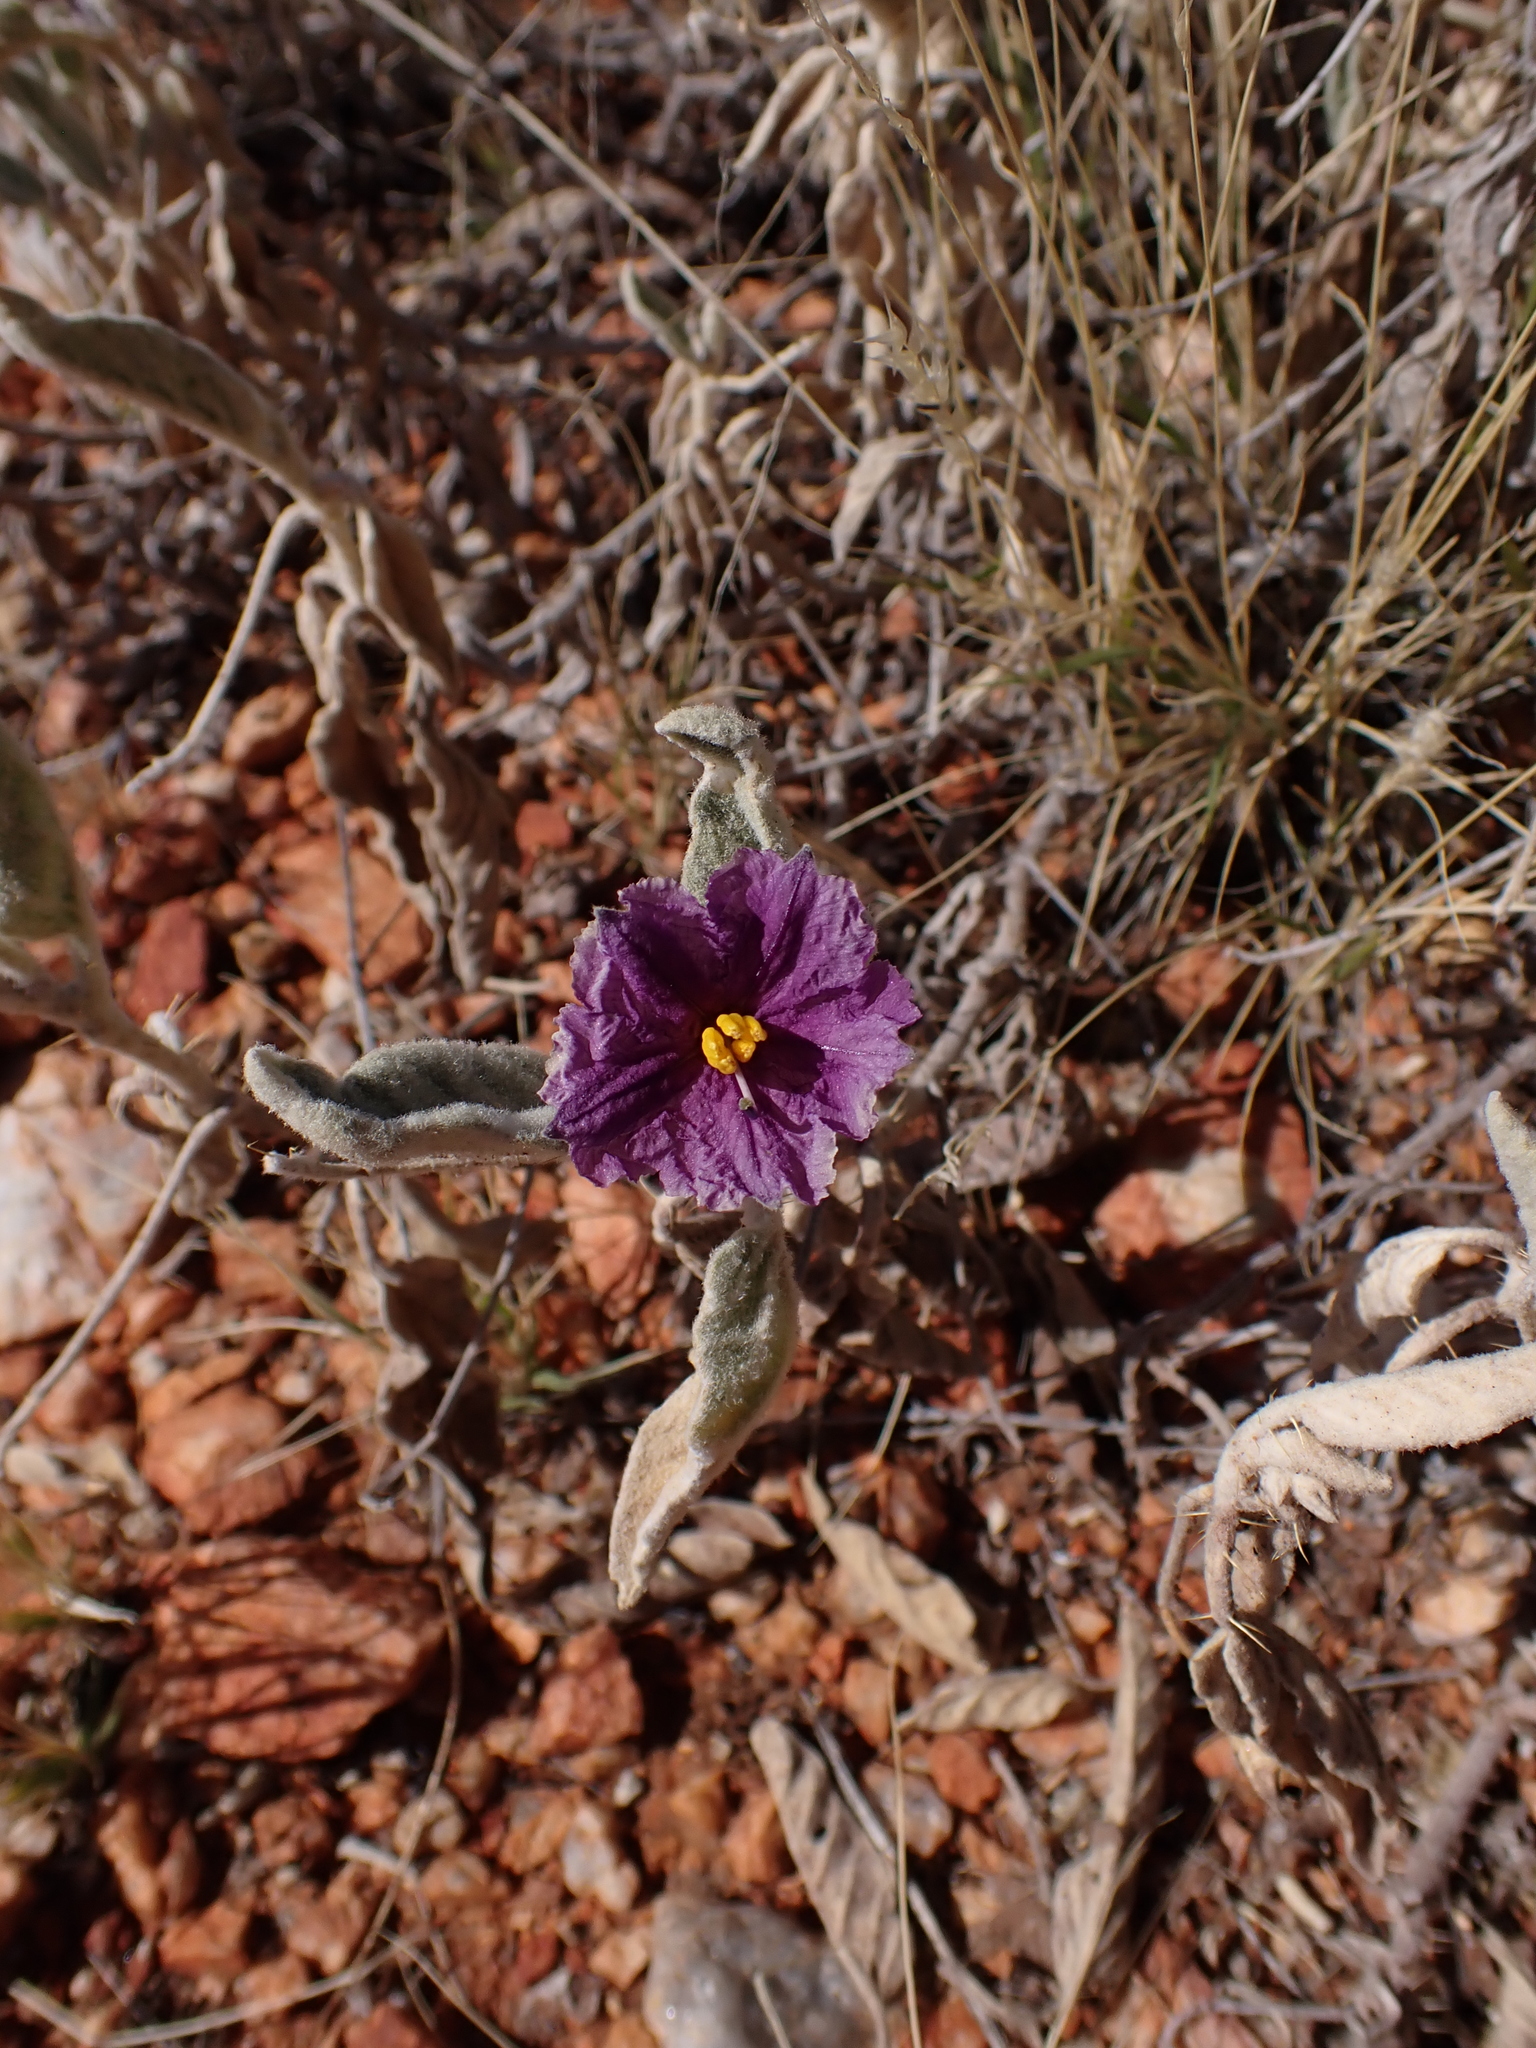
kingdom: Plantae
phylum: Tracheophyta
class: Magnoliopsida
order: Solanales
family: Solanaceae
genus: Solanum
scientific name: Solanum ellipticum
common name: Potato-bush
